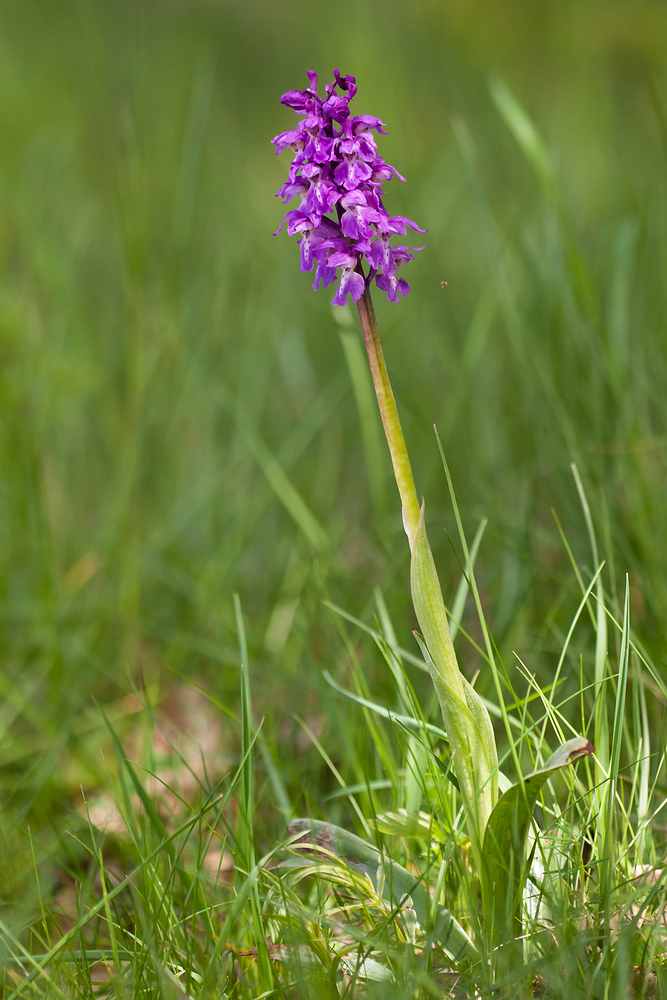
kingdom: Plantae
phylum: Tracheophyta
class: Liliopsida
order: Asparagales
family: Orchidaceae
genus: Orchis
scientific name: Orchis mascula
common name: Early-purple orchid
